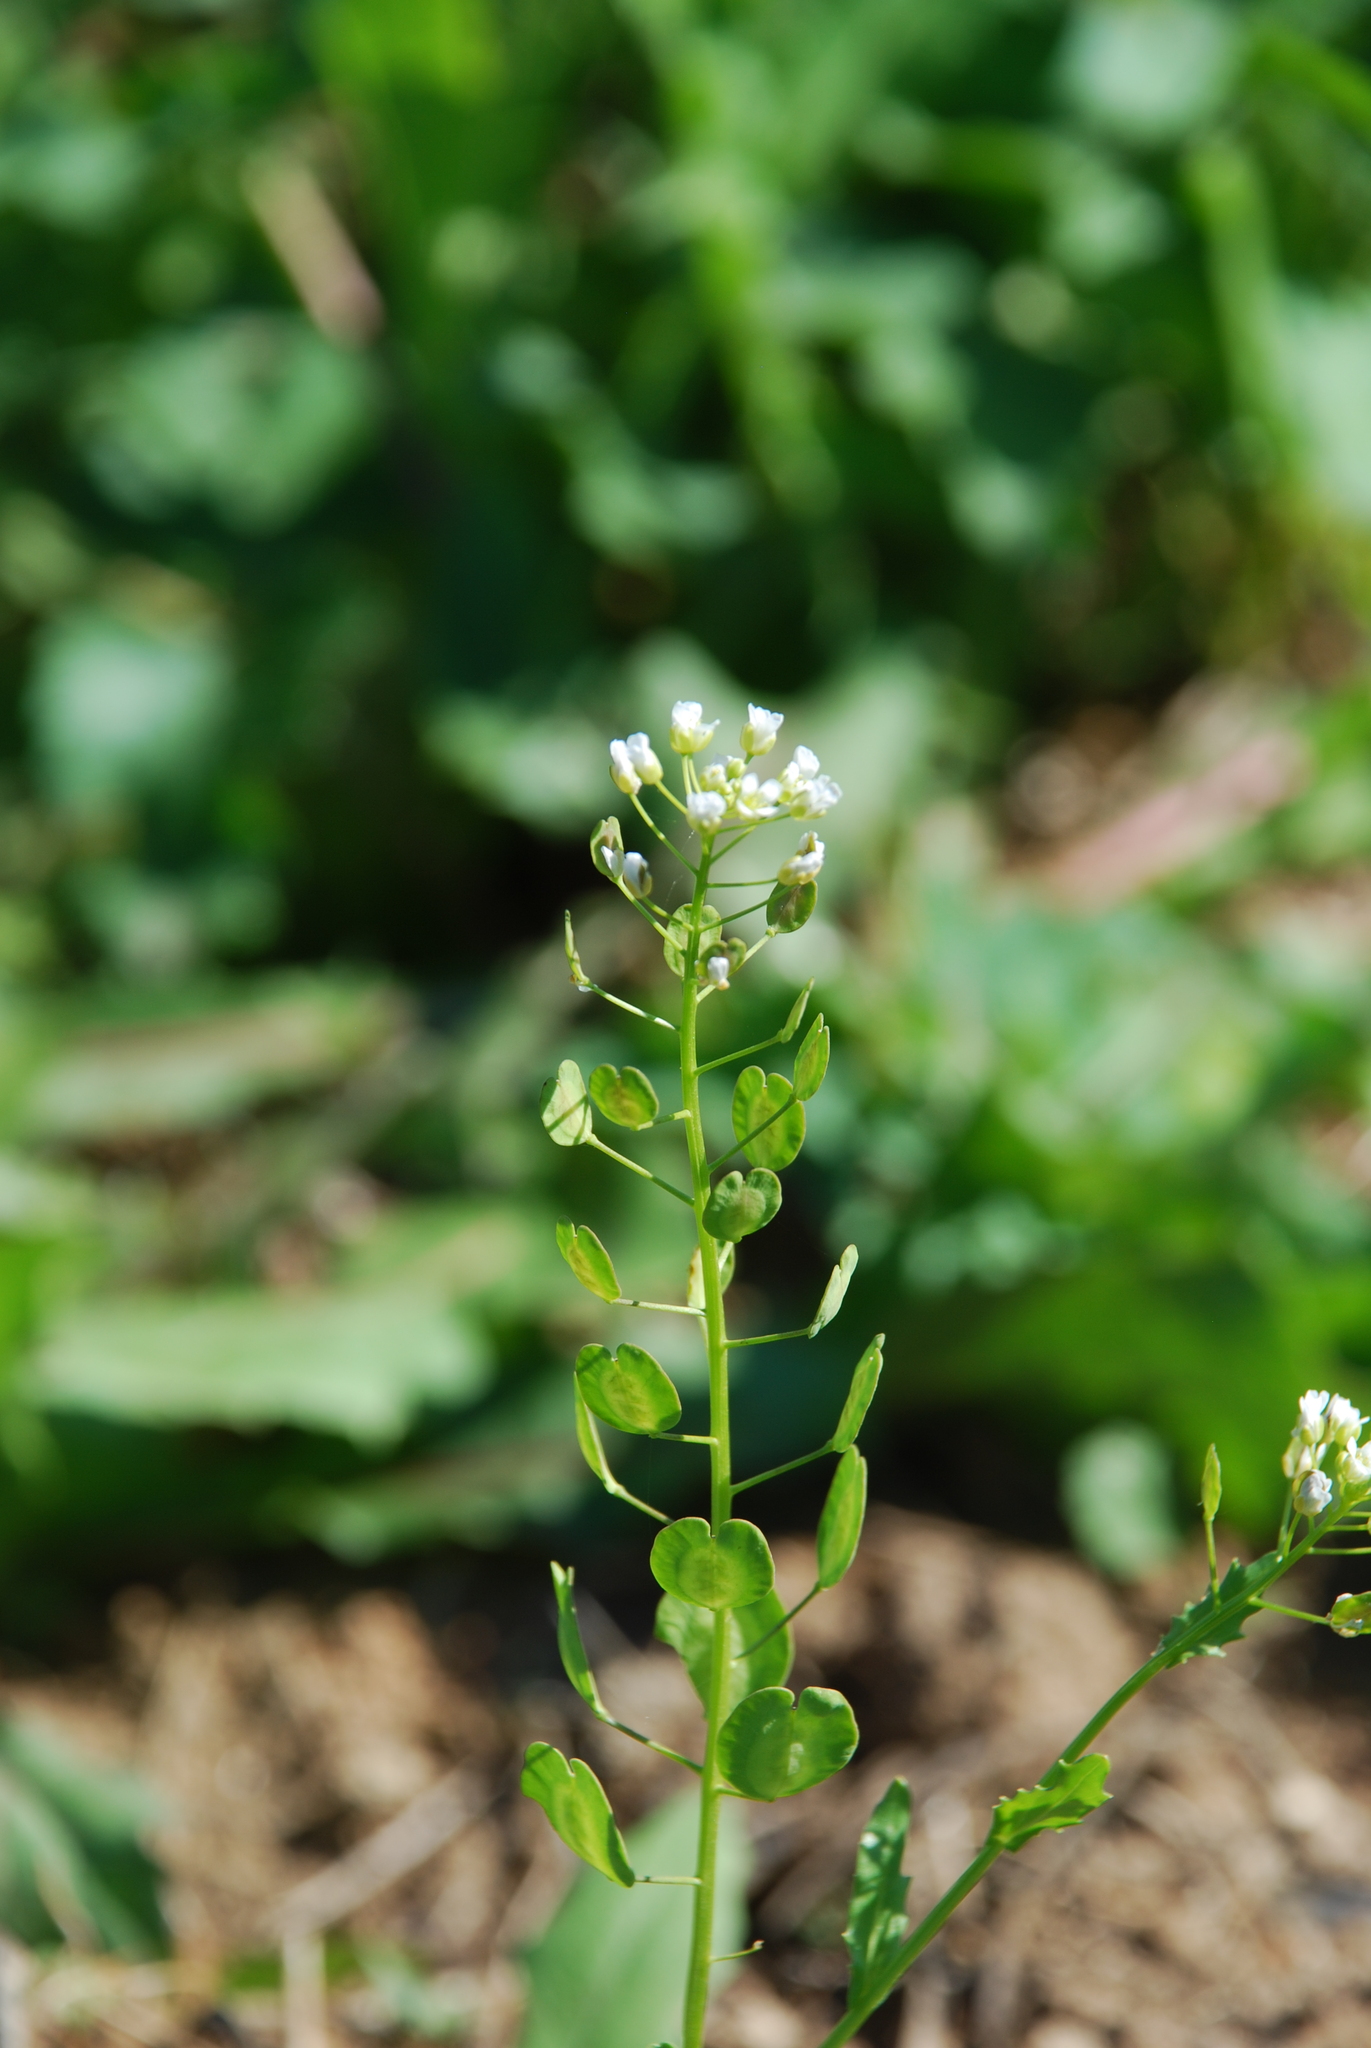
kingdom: Plantae
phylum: Tracheophyta
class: Magnoliopsida
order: Brassicales
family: Brassicaceae
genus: Thlaspi
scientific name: Thlaspi arvense
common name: Field pennycress
